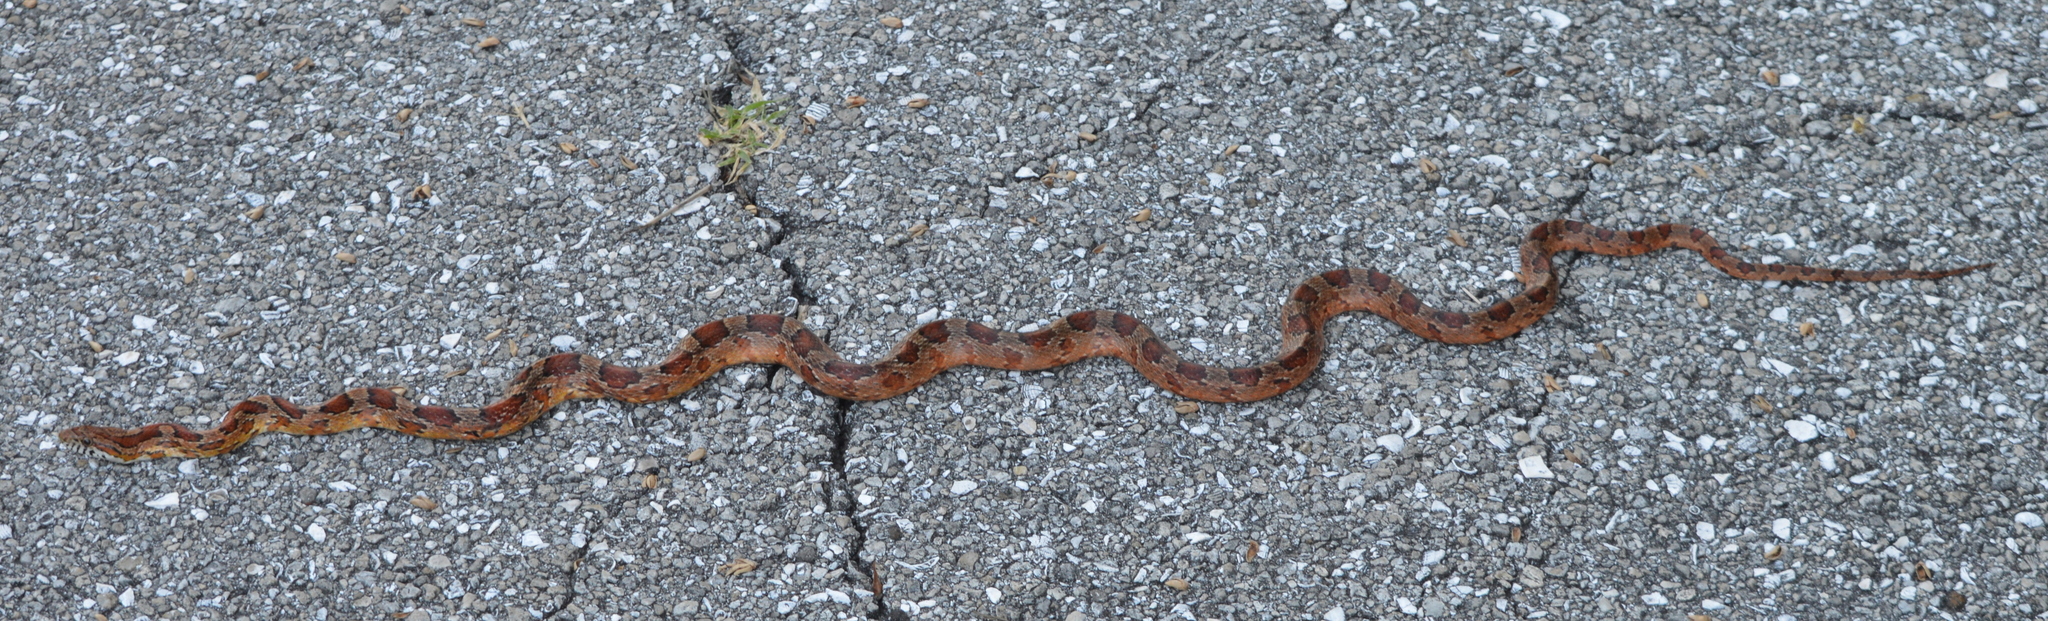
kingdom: Animalia
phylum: Chordata
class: Squamata
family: Colubridae
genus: Pantherophis
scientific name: Pantherophis guttatus
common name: Red cornsnake
